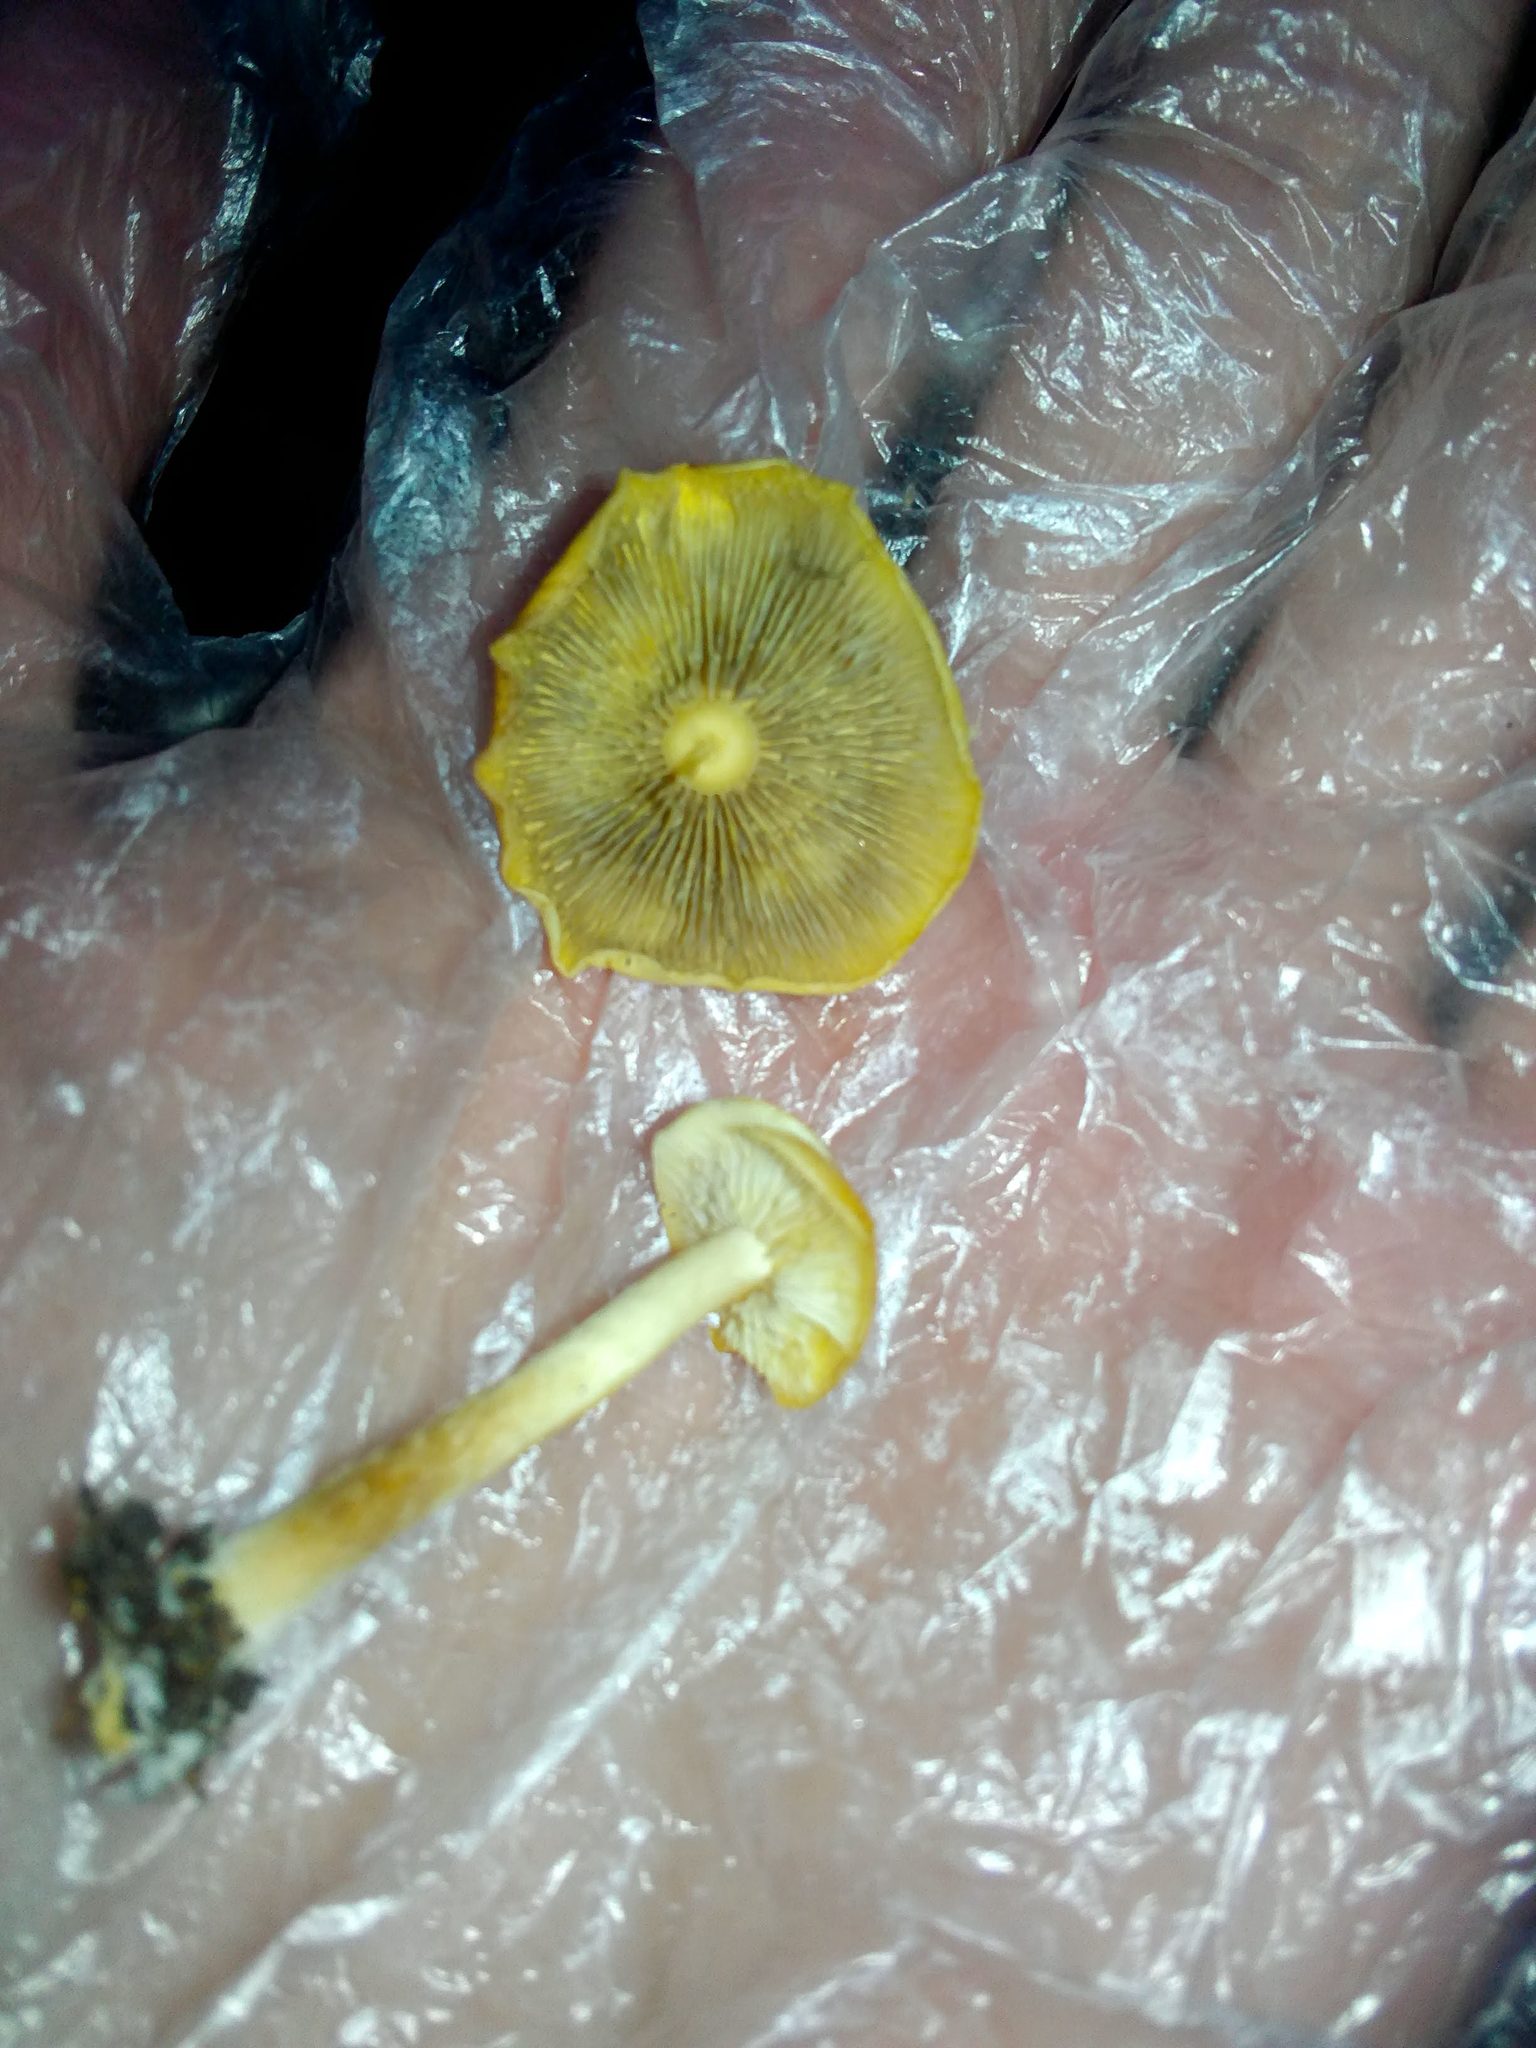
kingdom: Fungi
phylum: Basidiomycota
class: Agaricomycetes
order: Agaricales
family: Strophariaceae
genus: Hypholoma
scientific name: Hypholoma radicosum
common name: Rooting brownie
